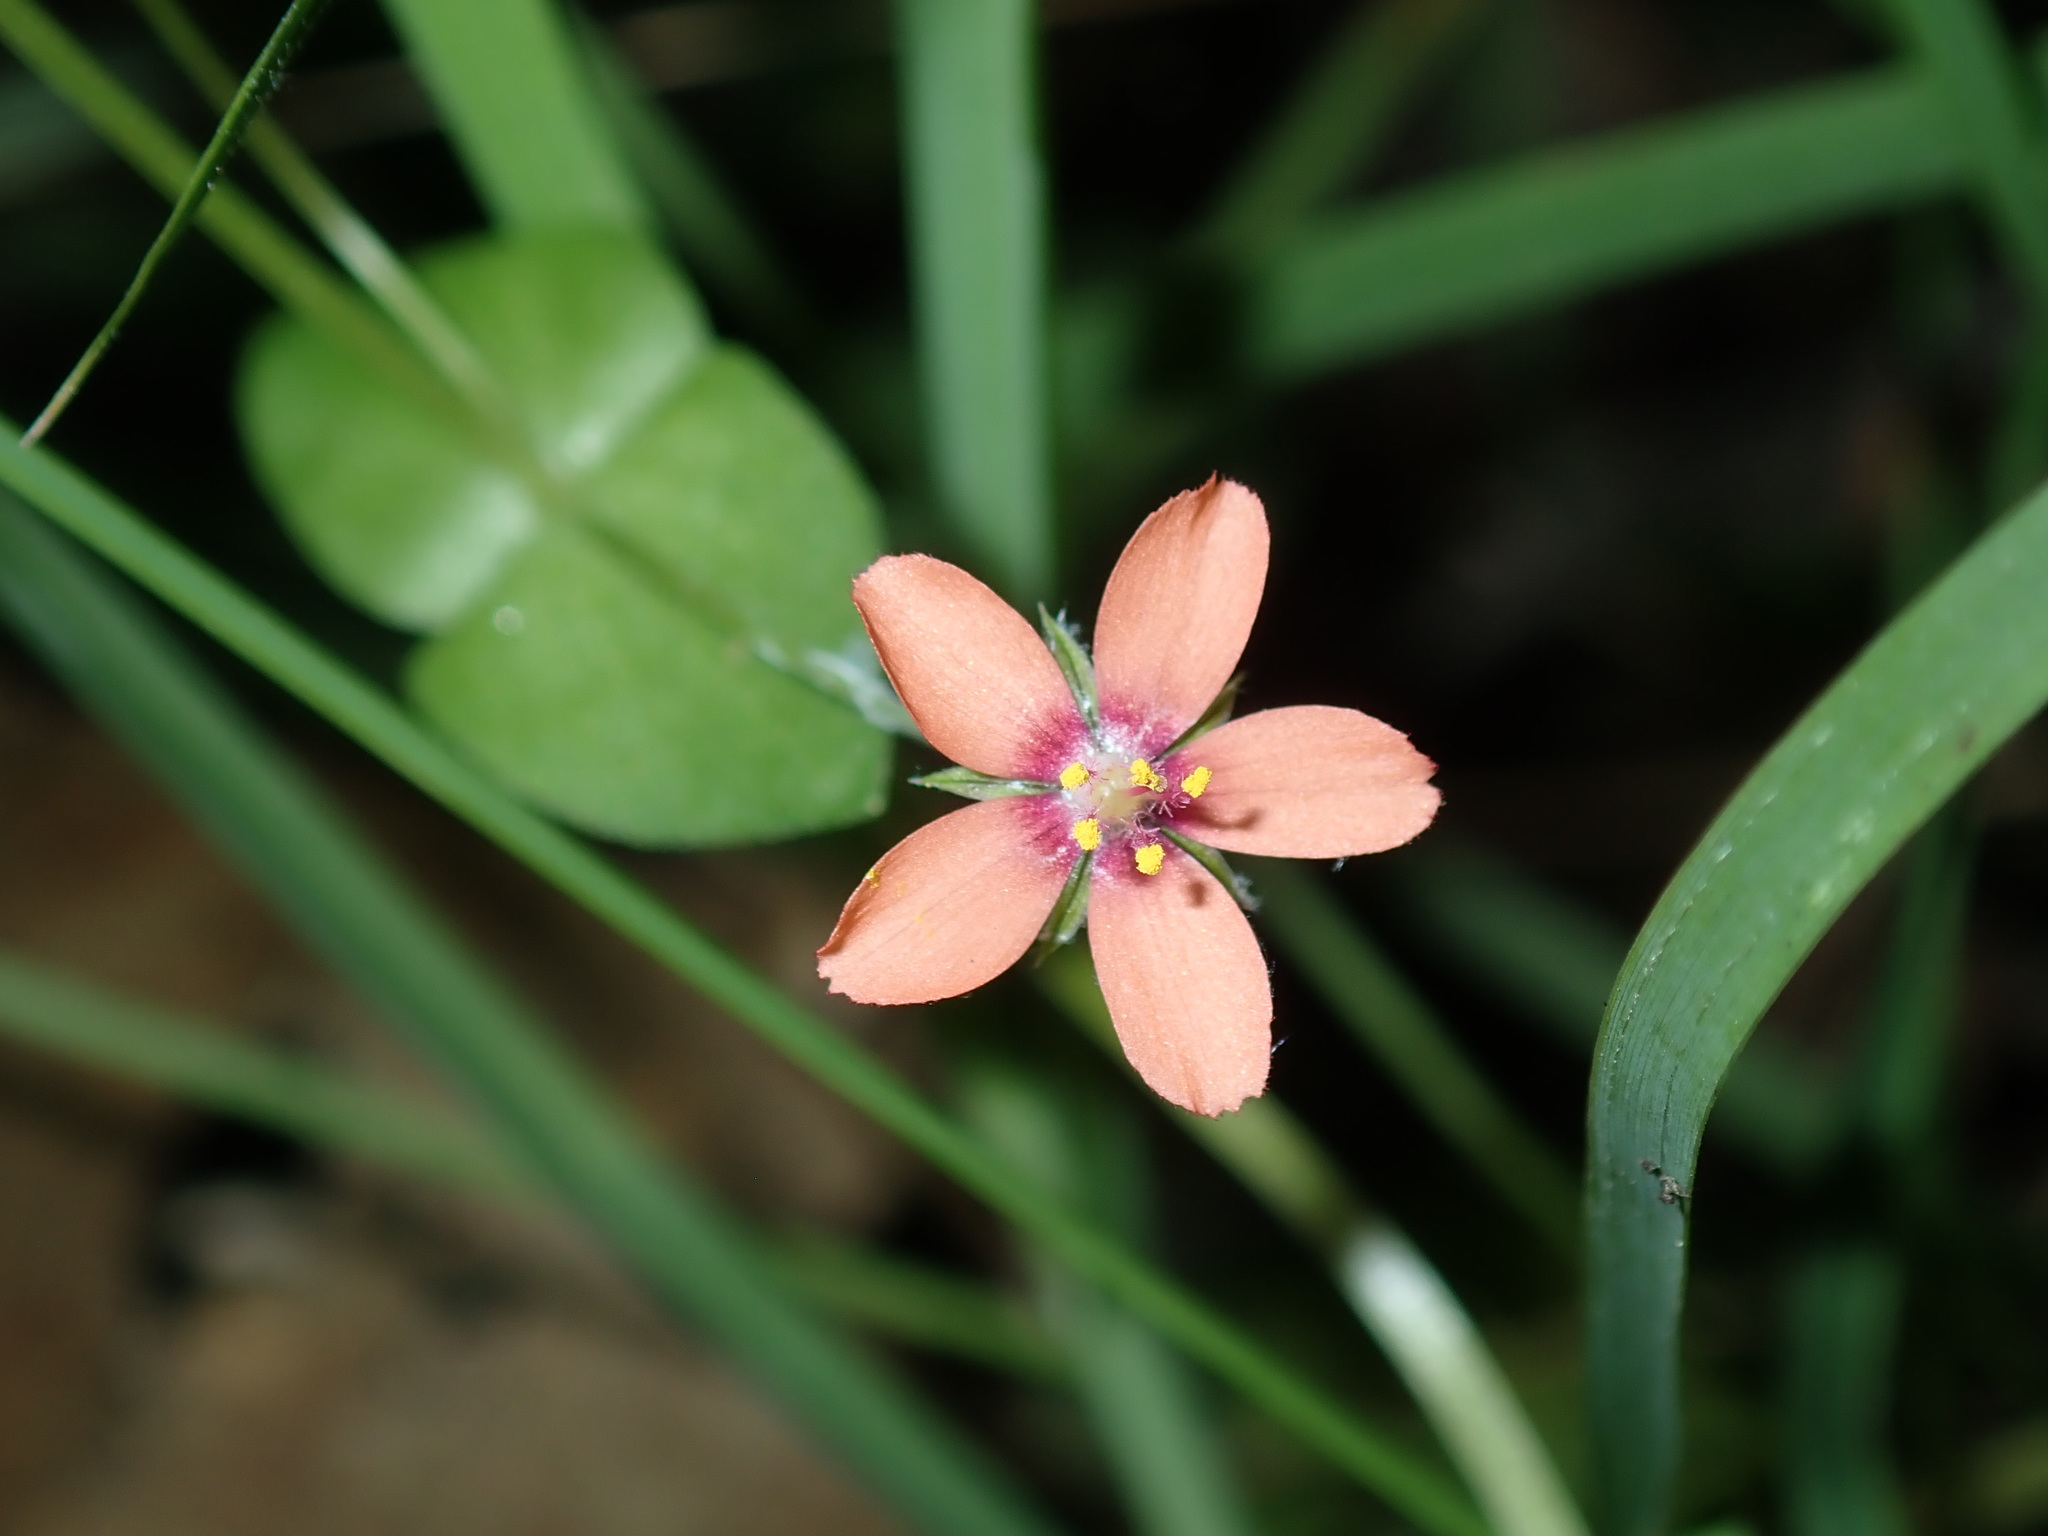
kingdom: Plantae
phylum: Tracheophyta
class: Magnoliopsida
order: Ericales
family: Primulaceae
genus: Lysimachia
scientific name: Lysimachia arvensis
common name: Scarlet pimpernel
